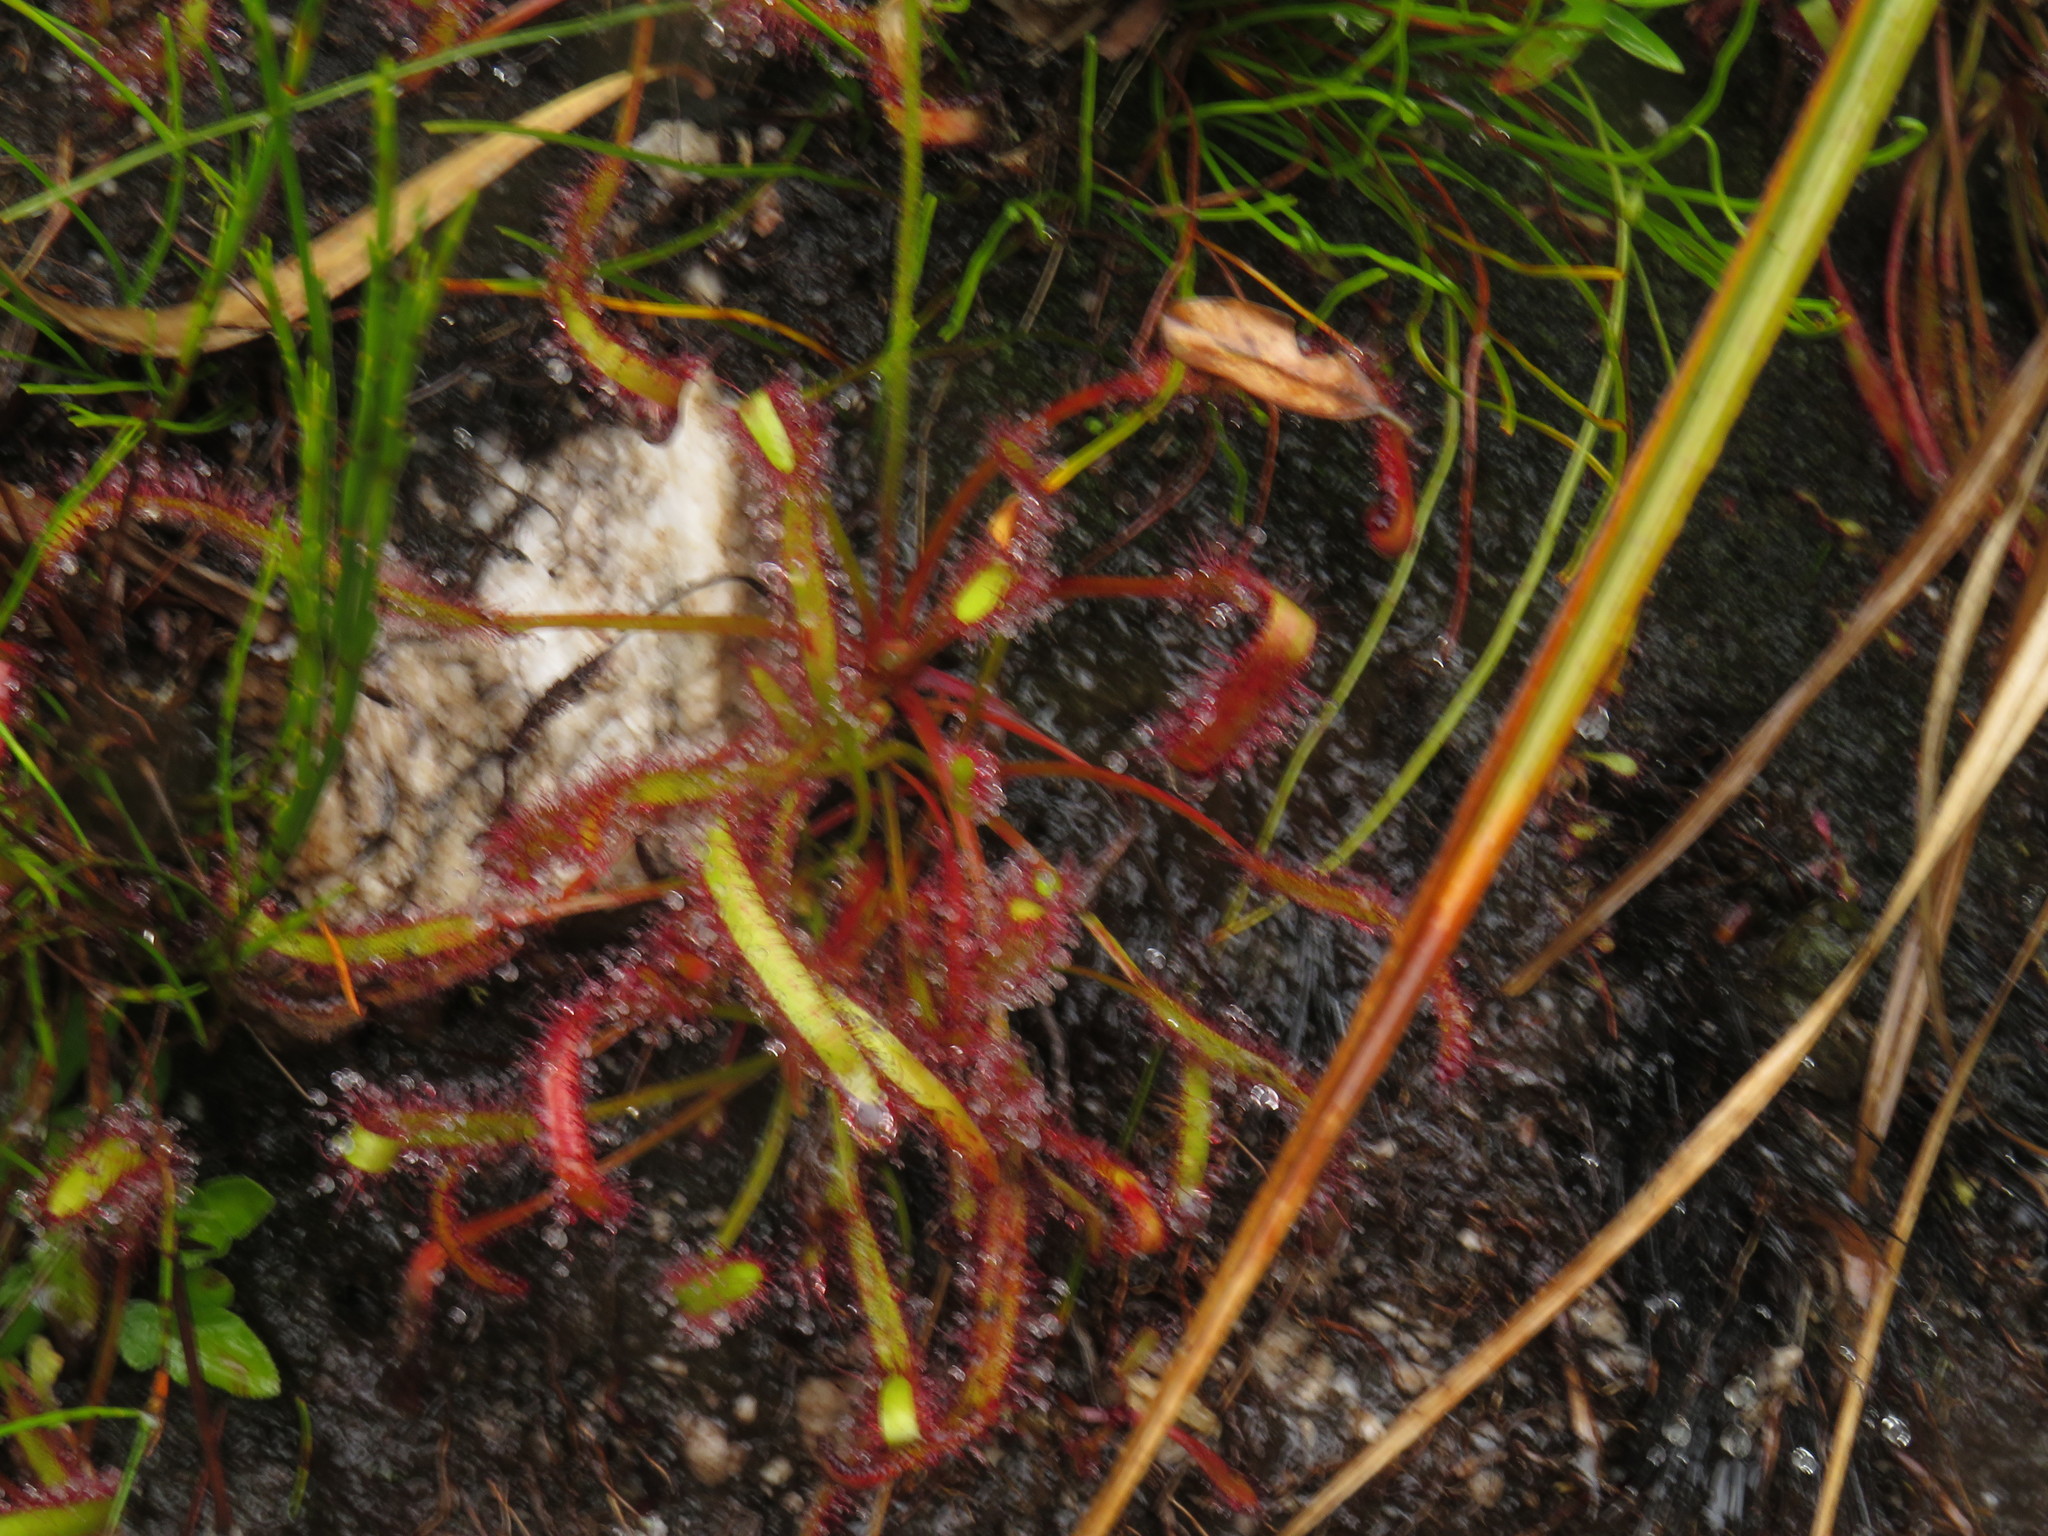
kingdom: Plantae
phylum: Tracheophyta
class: Magnoliopsida
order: Caryophyllales
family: Droseraceae
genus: Drosera
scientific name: Drosera capensis
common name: Cape sundew
